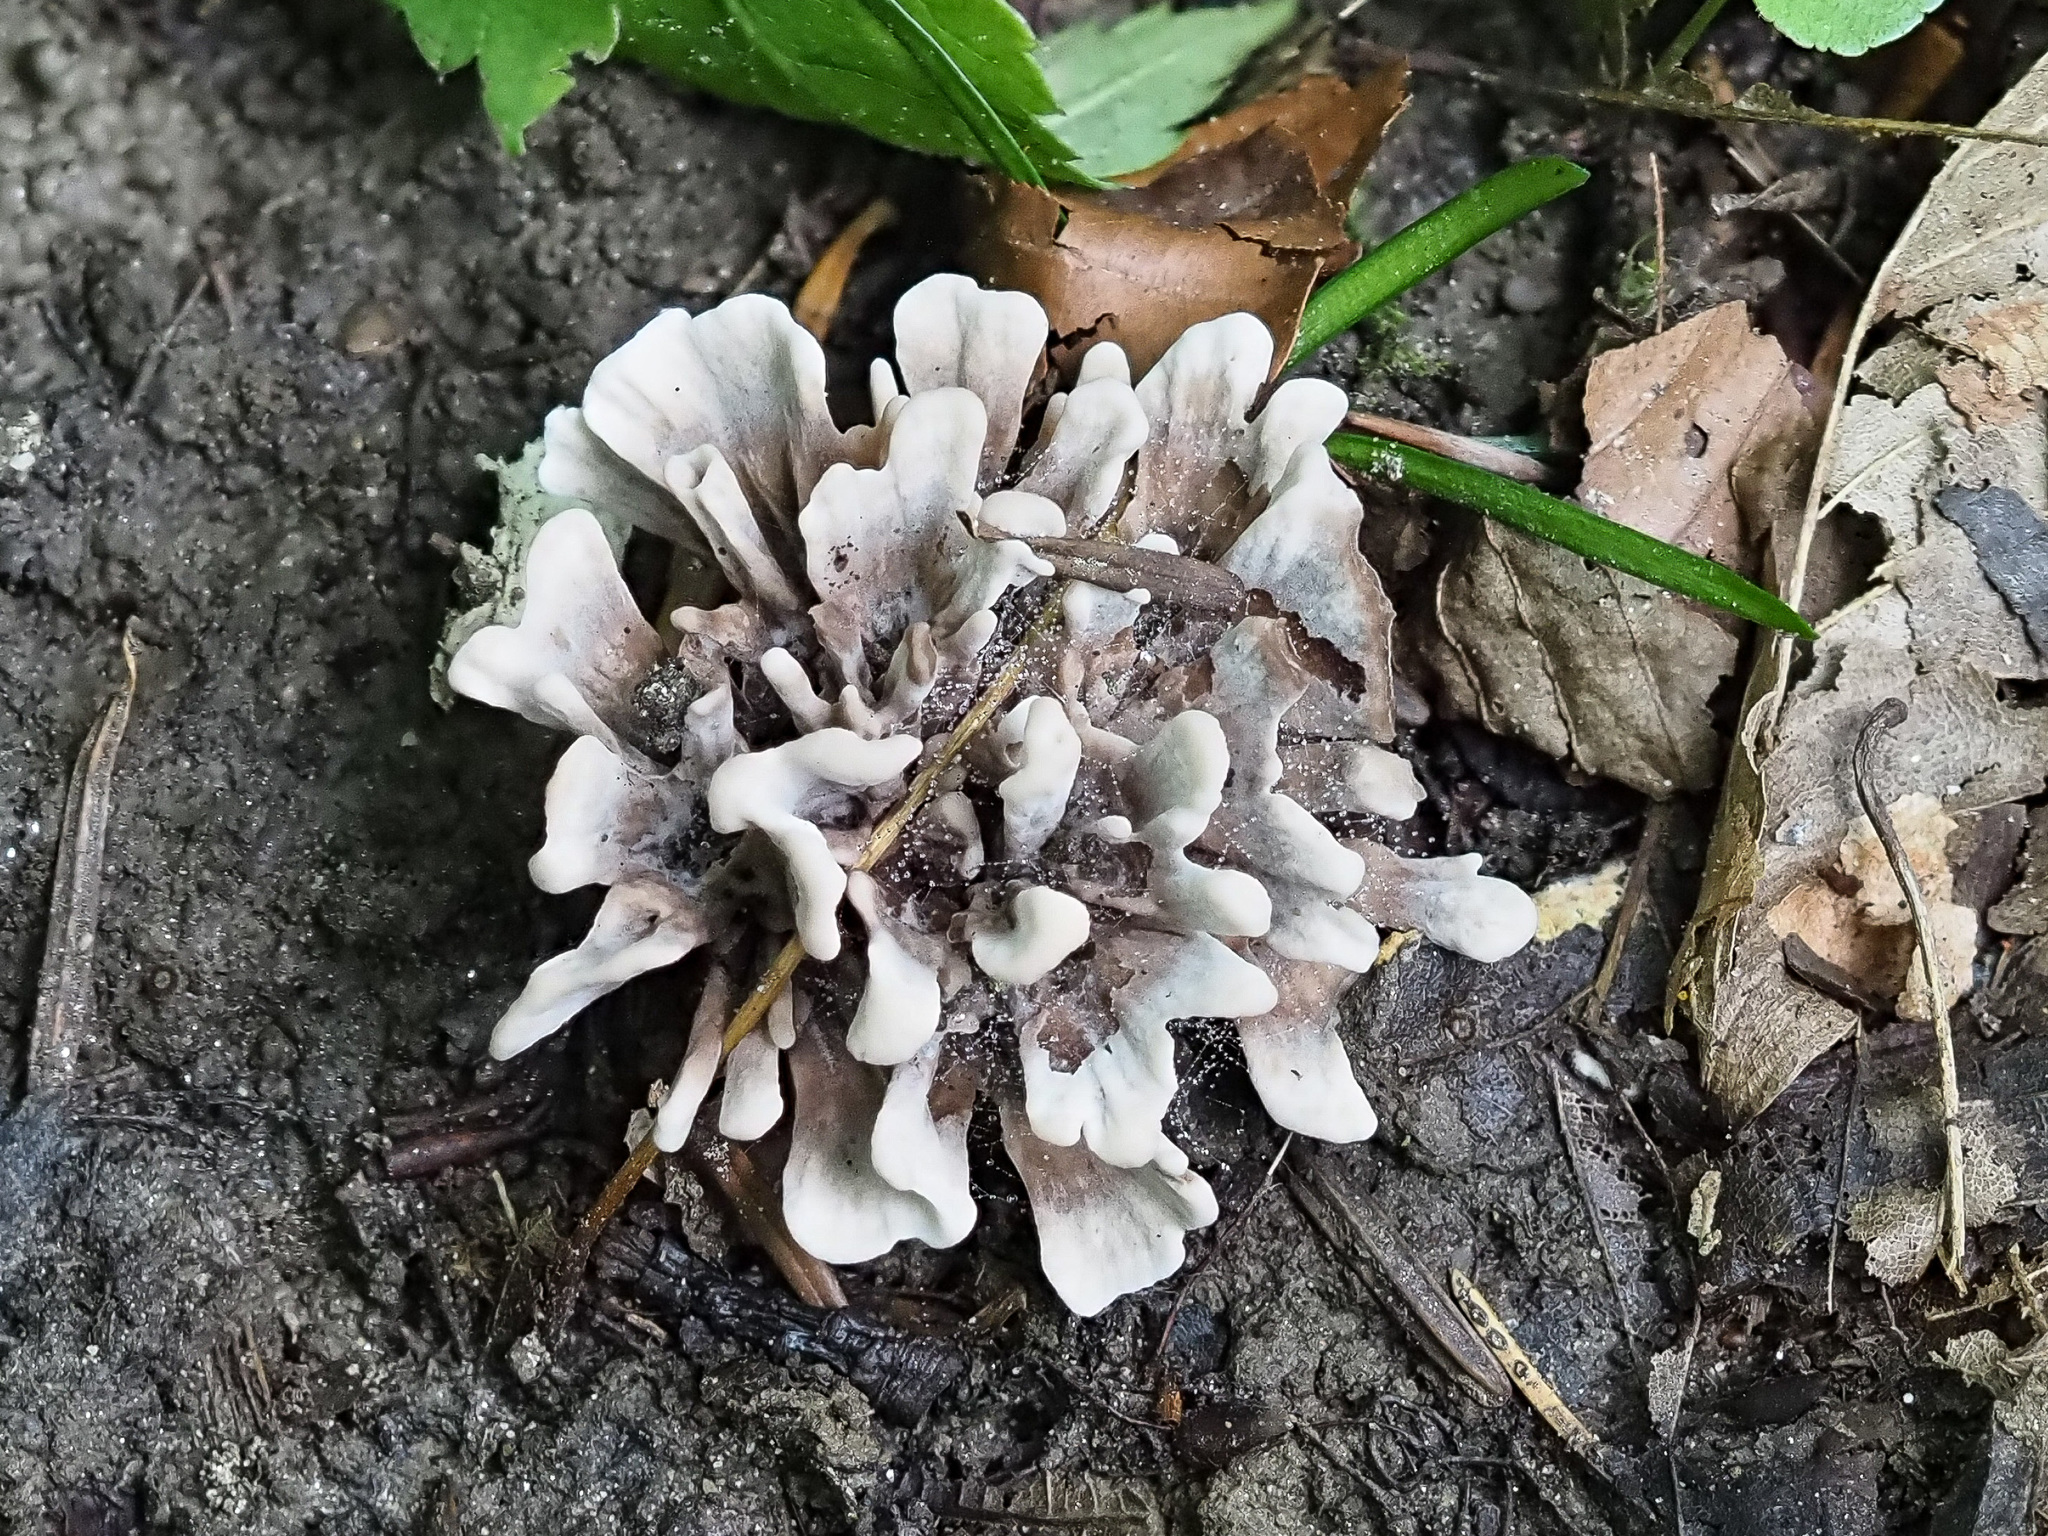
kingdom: Fungi
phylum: Basidiomycota
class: Agaricomycetes
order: Thelephorales
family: Thelephoraceae
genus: Thelephora
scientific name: Thelephora anthocephala
